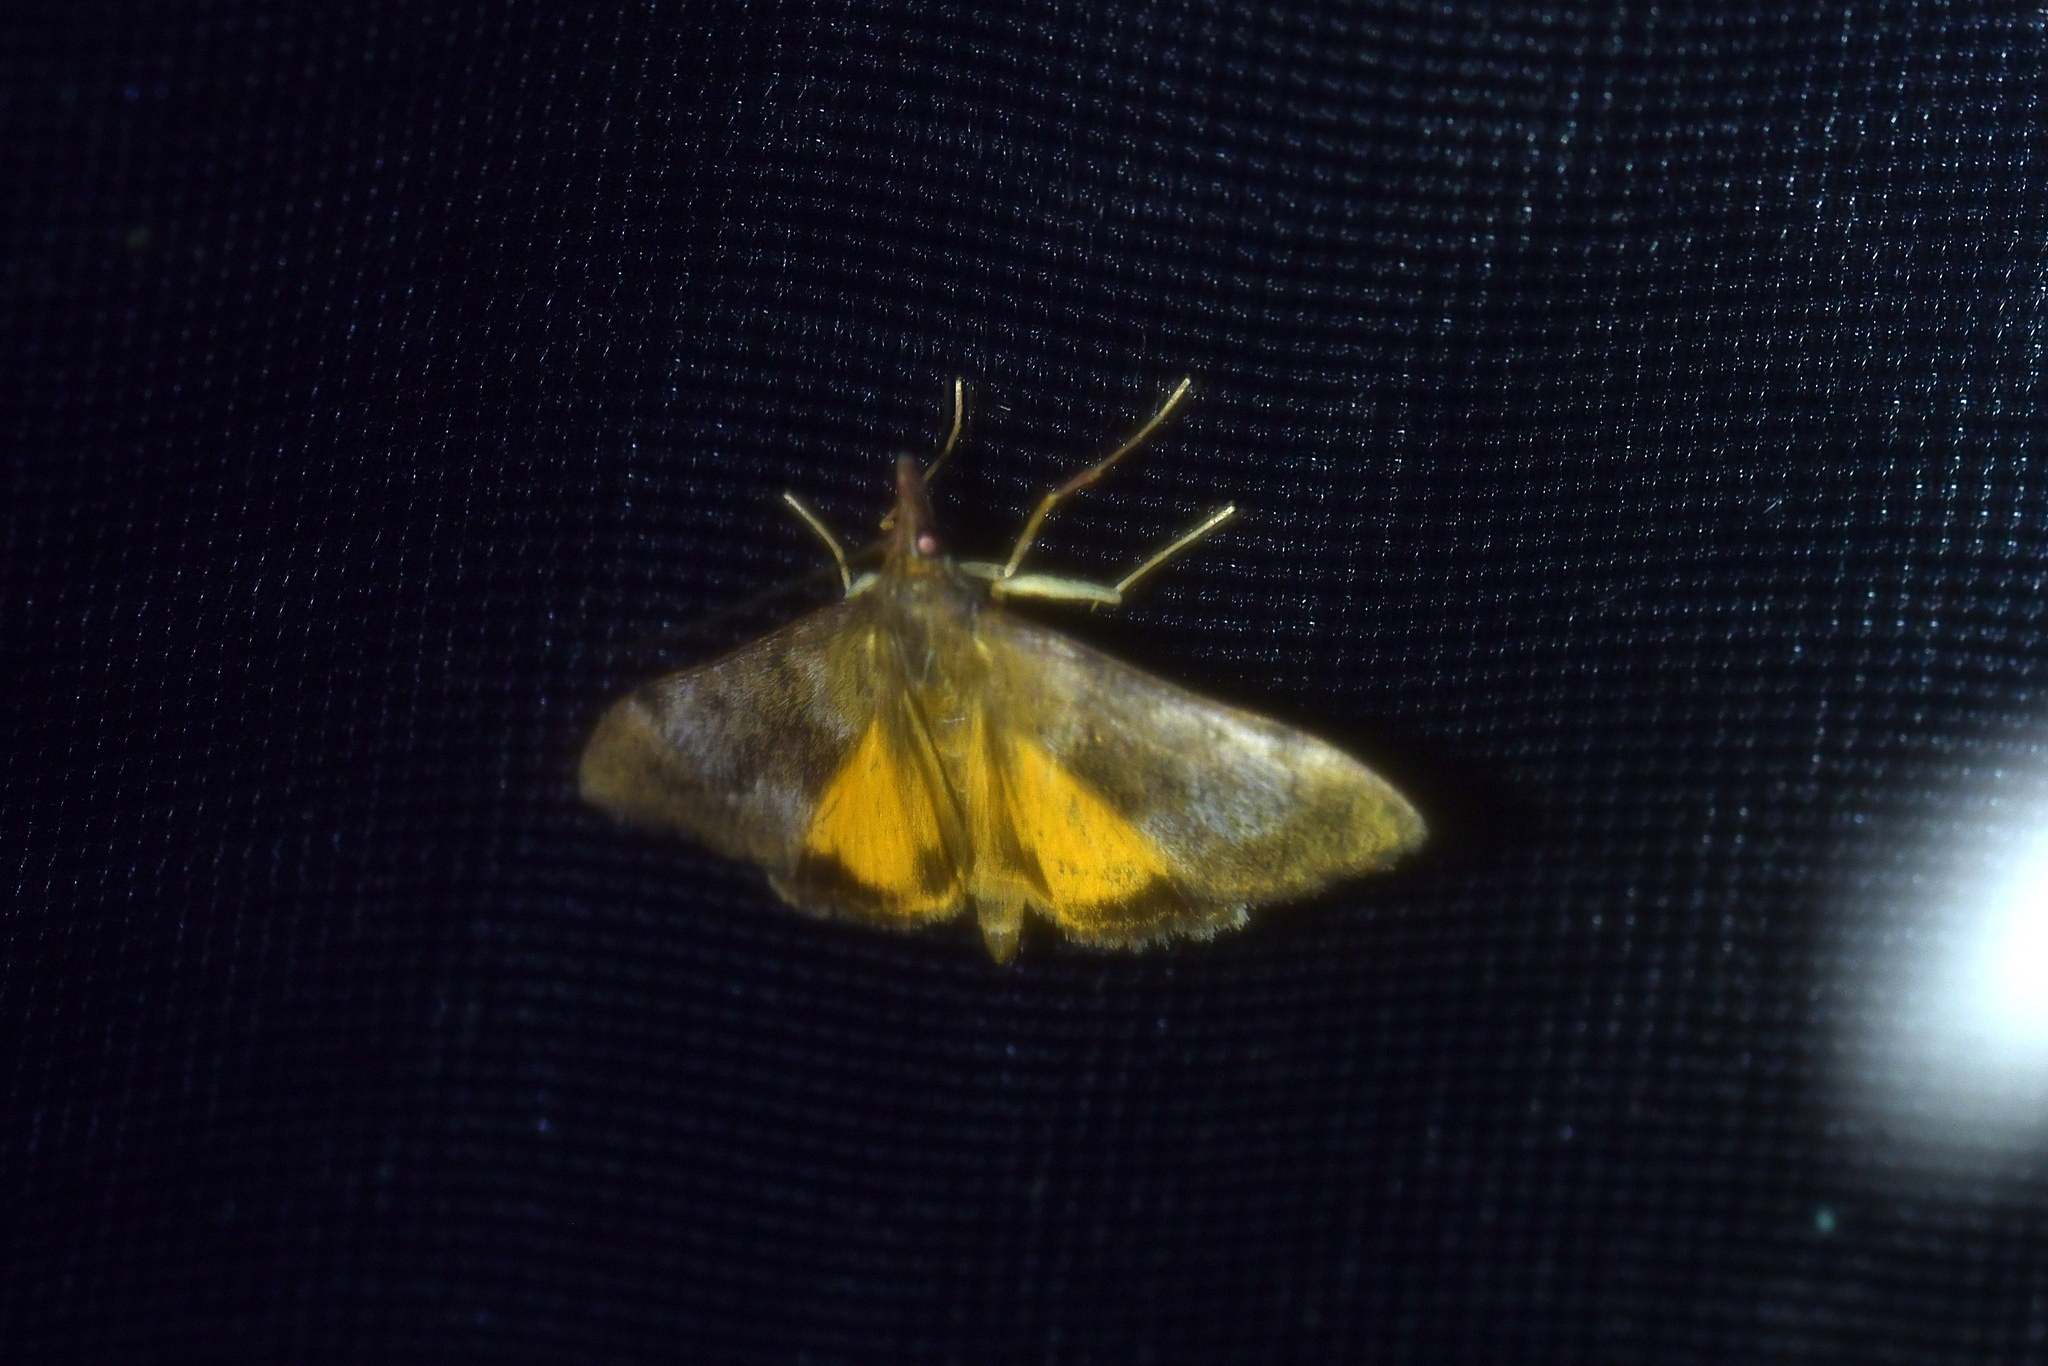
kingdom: Animalia
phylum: Arthropoda
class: Insecta
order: Lepidoptera
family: Crambidae
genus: Uresiphita
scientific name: Uresiphita
